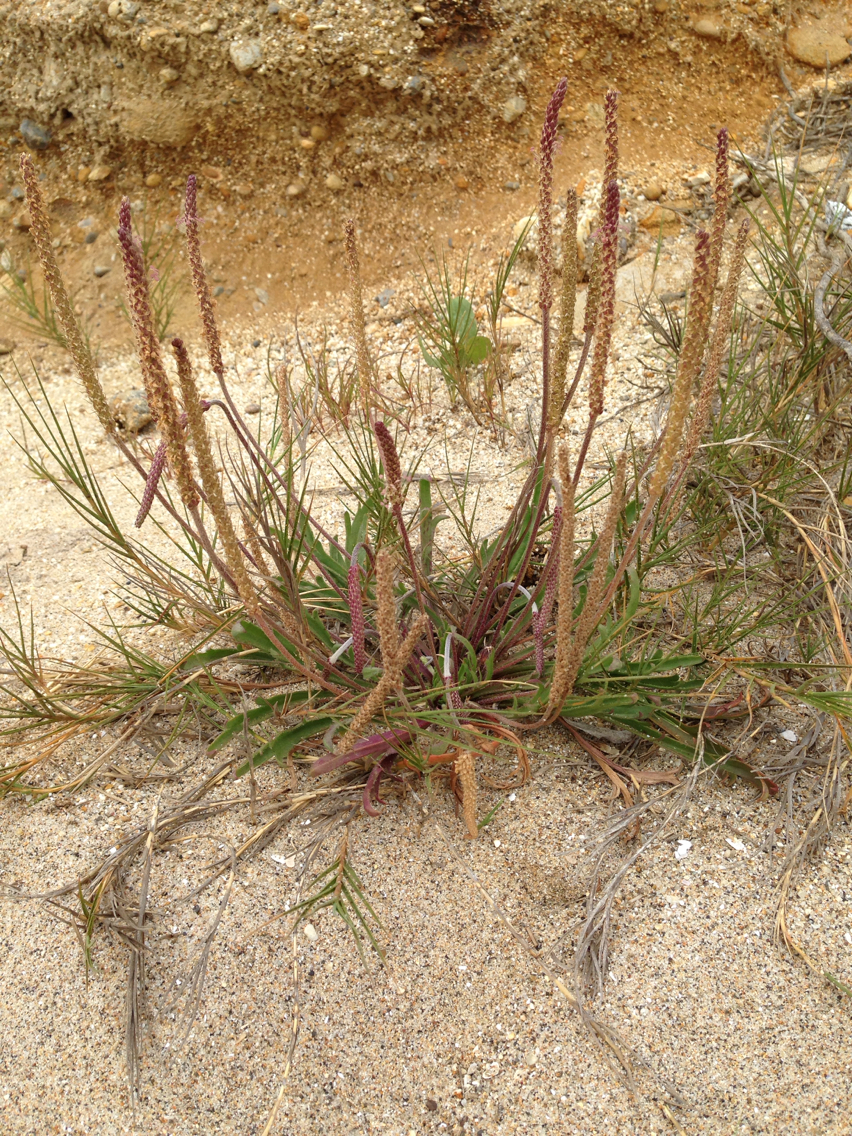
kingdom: Plantae
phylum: Tracheophyta
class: Magnoliopsida
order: Lamiales
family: Plantaginaceae
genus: Plantago
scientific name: Plantago coronopus
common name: Buck's-horn plantain
